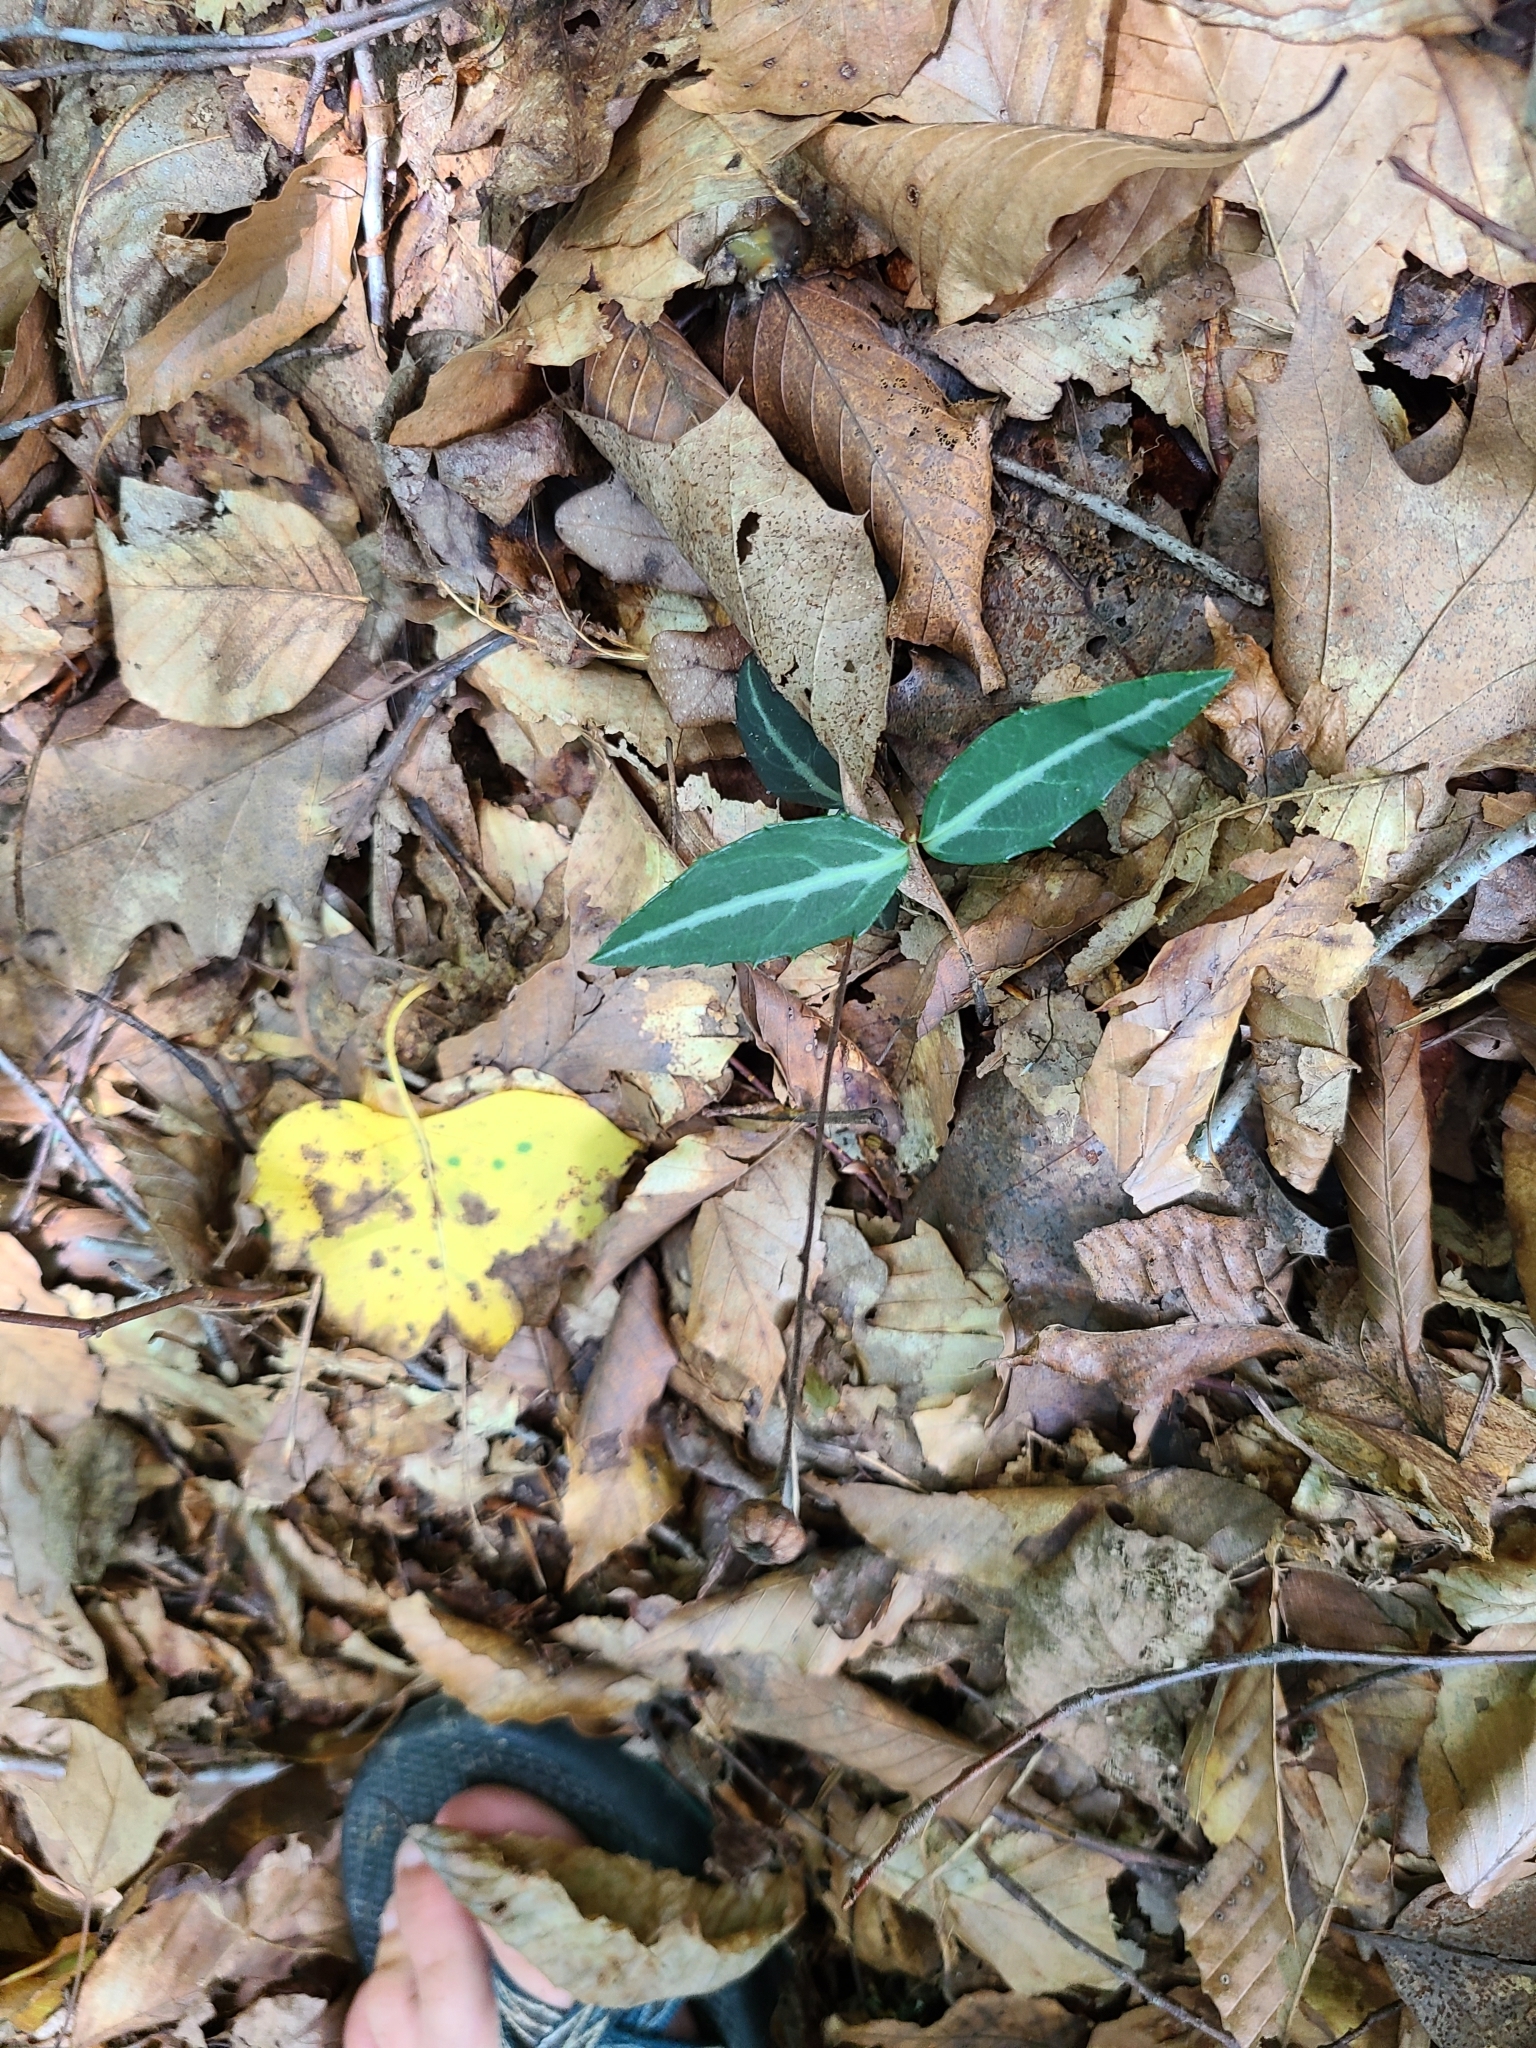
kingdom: Plantae
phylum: Tracheophyta
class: Magnoliopsida
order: Ericales
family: Ericaceae
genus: Chimaphila
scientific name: Chimaphila maculata
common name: Spotted pipsissewa
